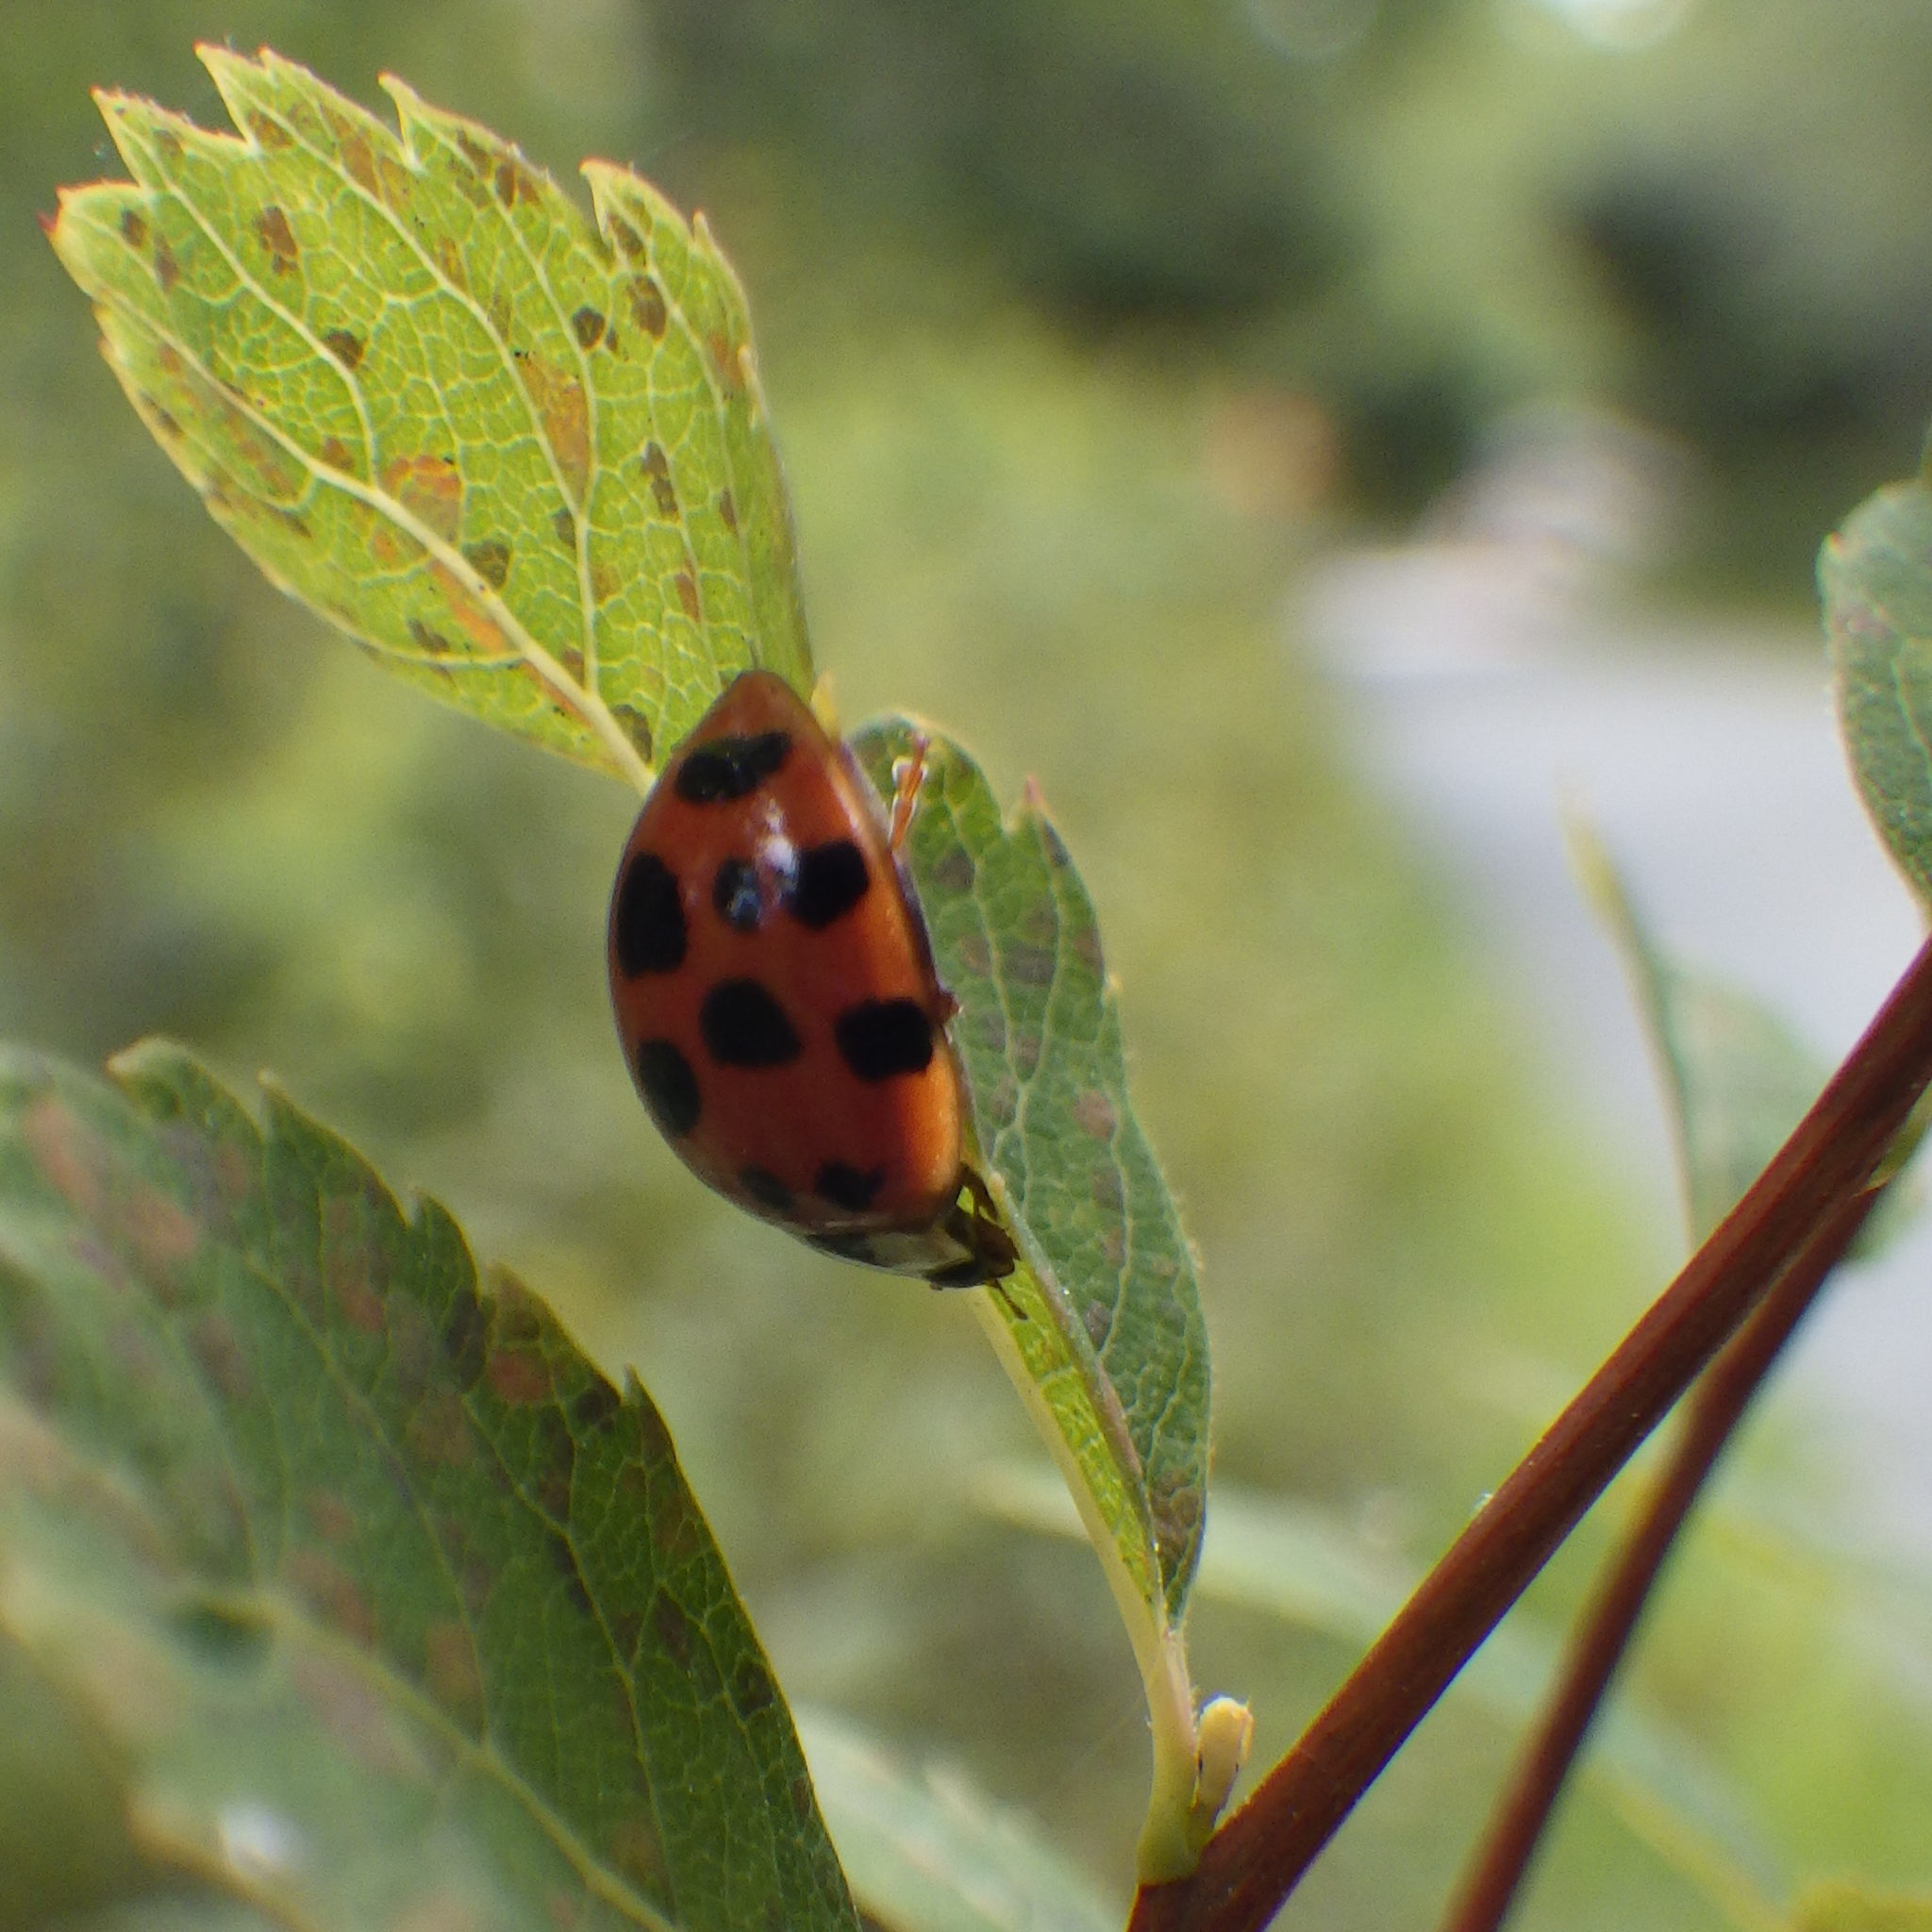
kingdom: Animalia
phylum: Arthropoda
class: Insecta
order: Coleoptera
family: Coccinellidae
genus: Harmonia
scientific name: Harmonia axyridis
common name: Harlequin ladybird
